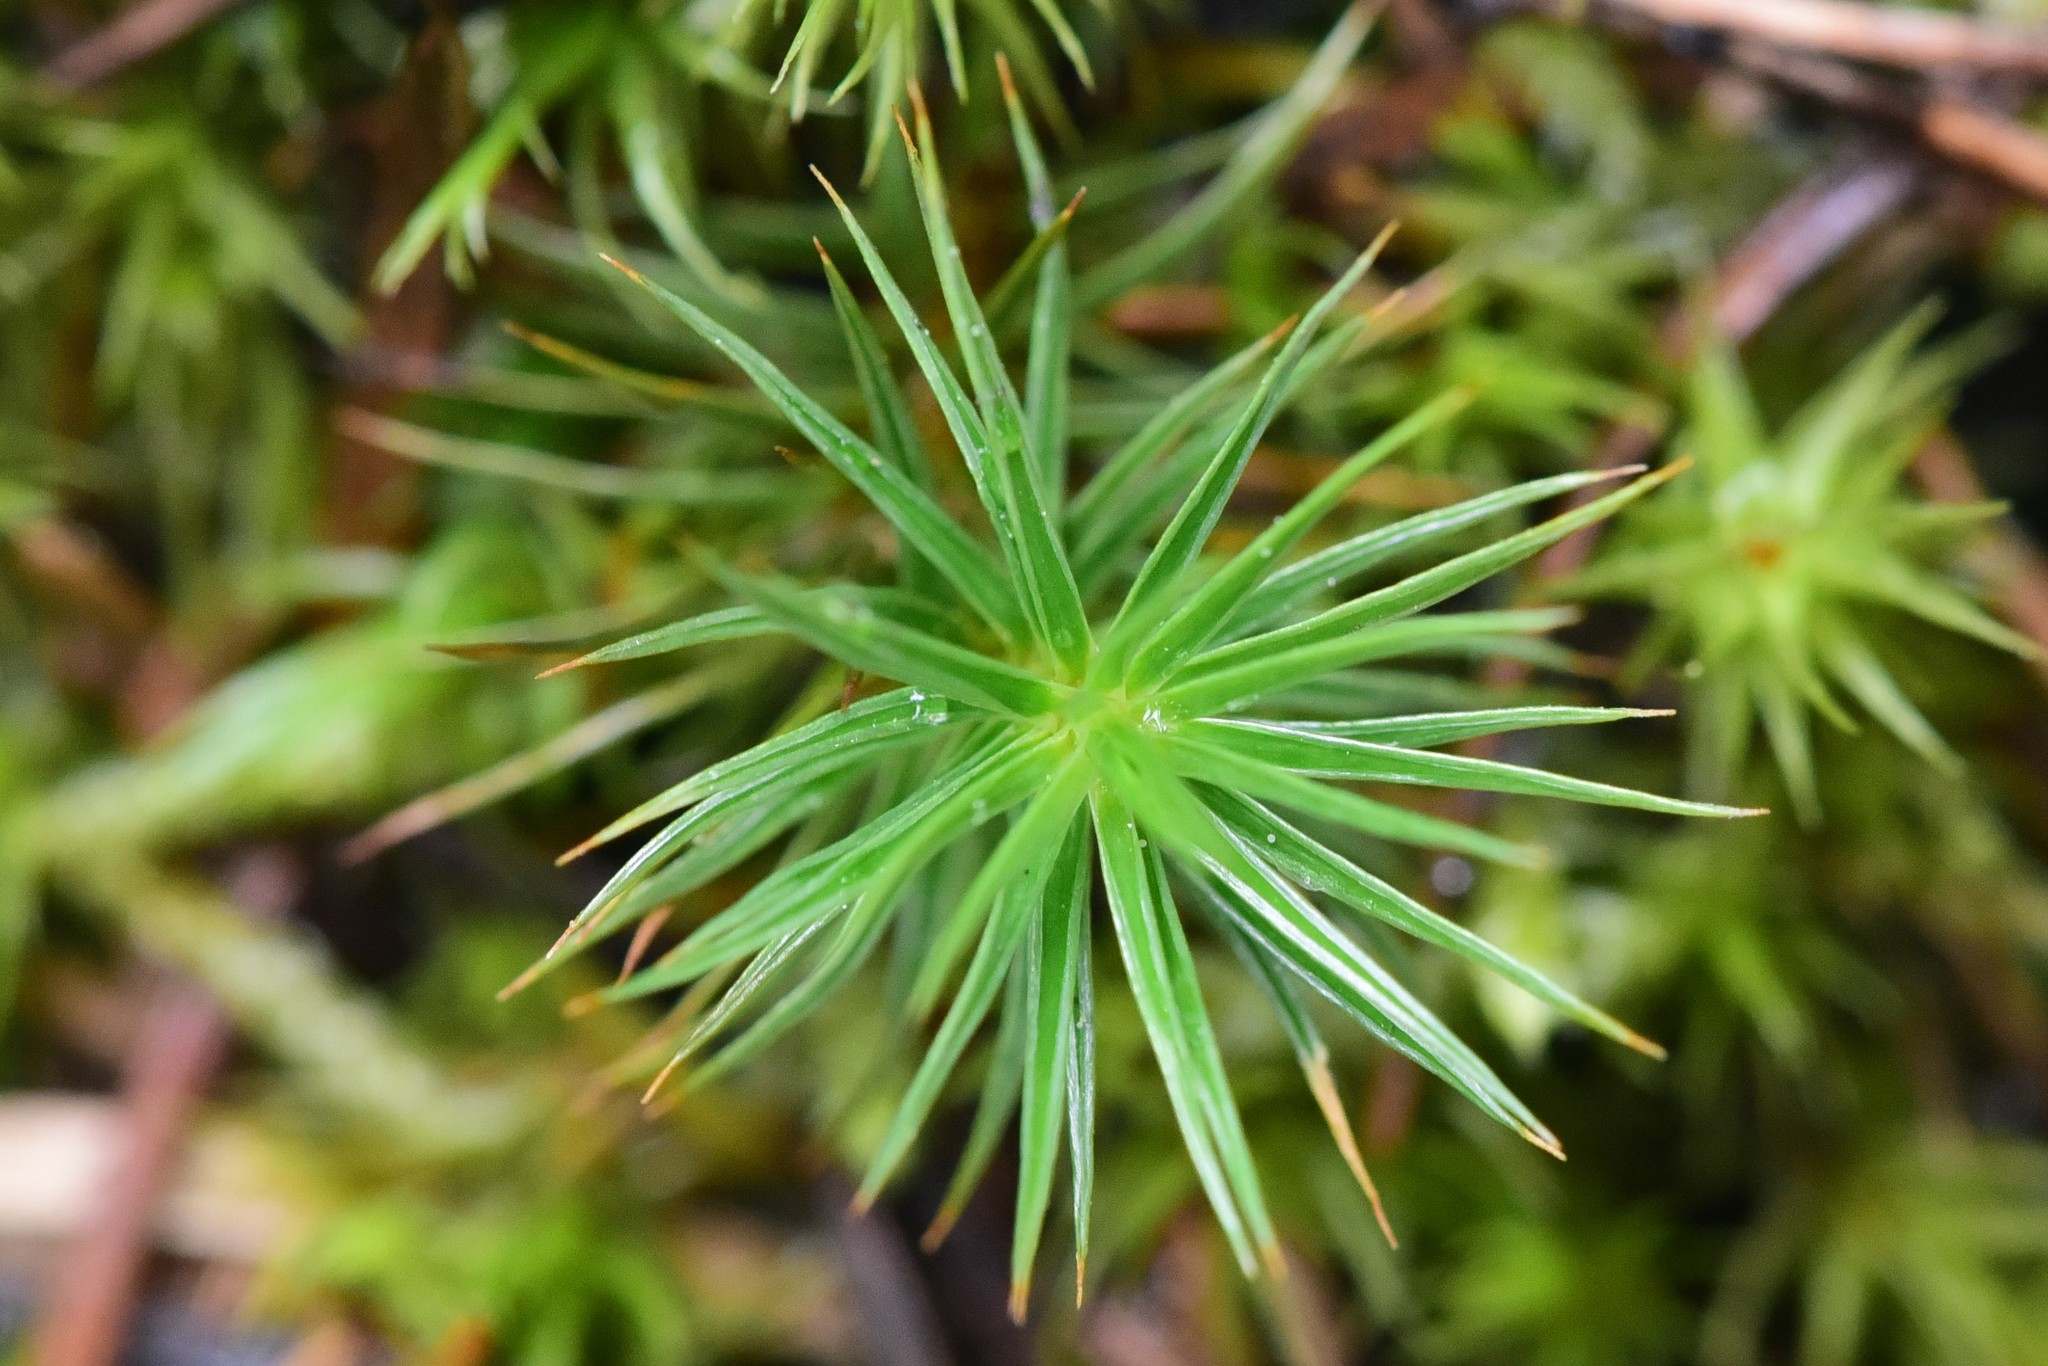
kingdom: Plantae
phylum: Bryophyta
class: Polytrichopsida
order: Polytrichales
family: Polytrichaceae
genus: Polytrichum
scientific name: Polytrichum juniperinum
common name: Juniper haircap moss
